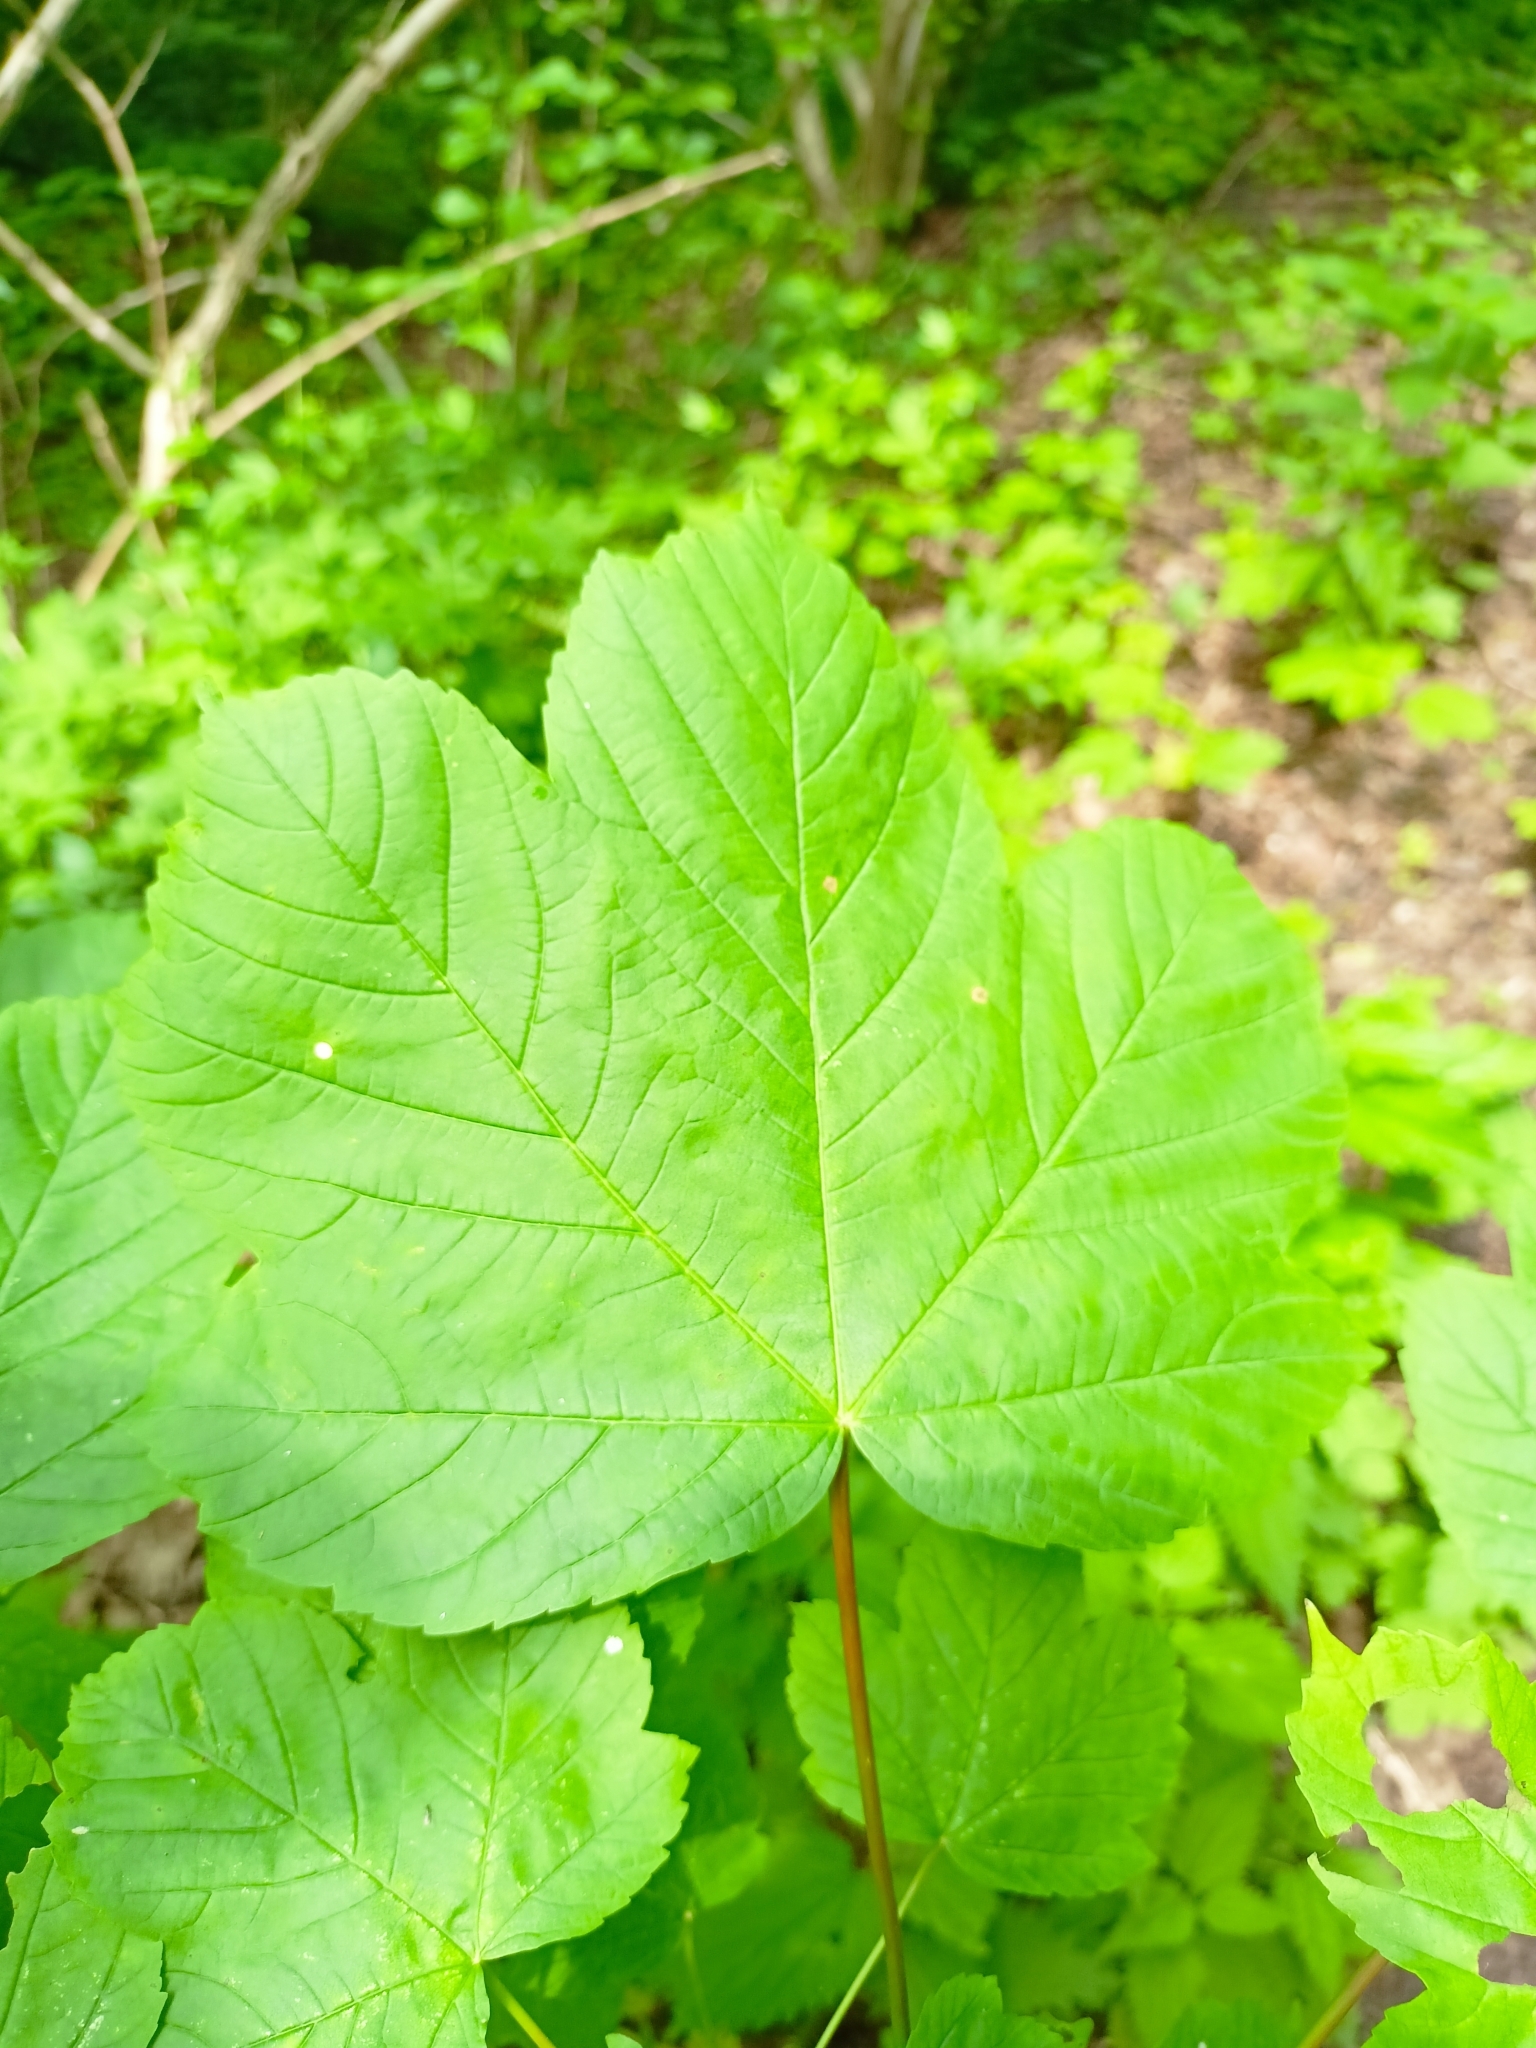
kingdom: Plantae
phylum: Tracheophyta
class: Magnoliopsida
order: Sapindales
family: Sapindaceae
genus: Acer
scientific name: Acer pseudoplatanus
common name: Sycamore
